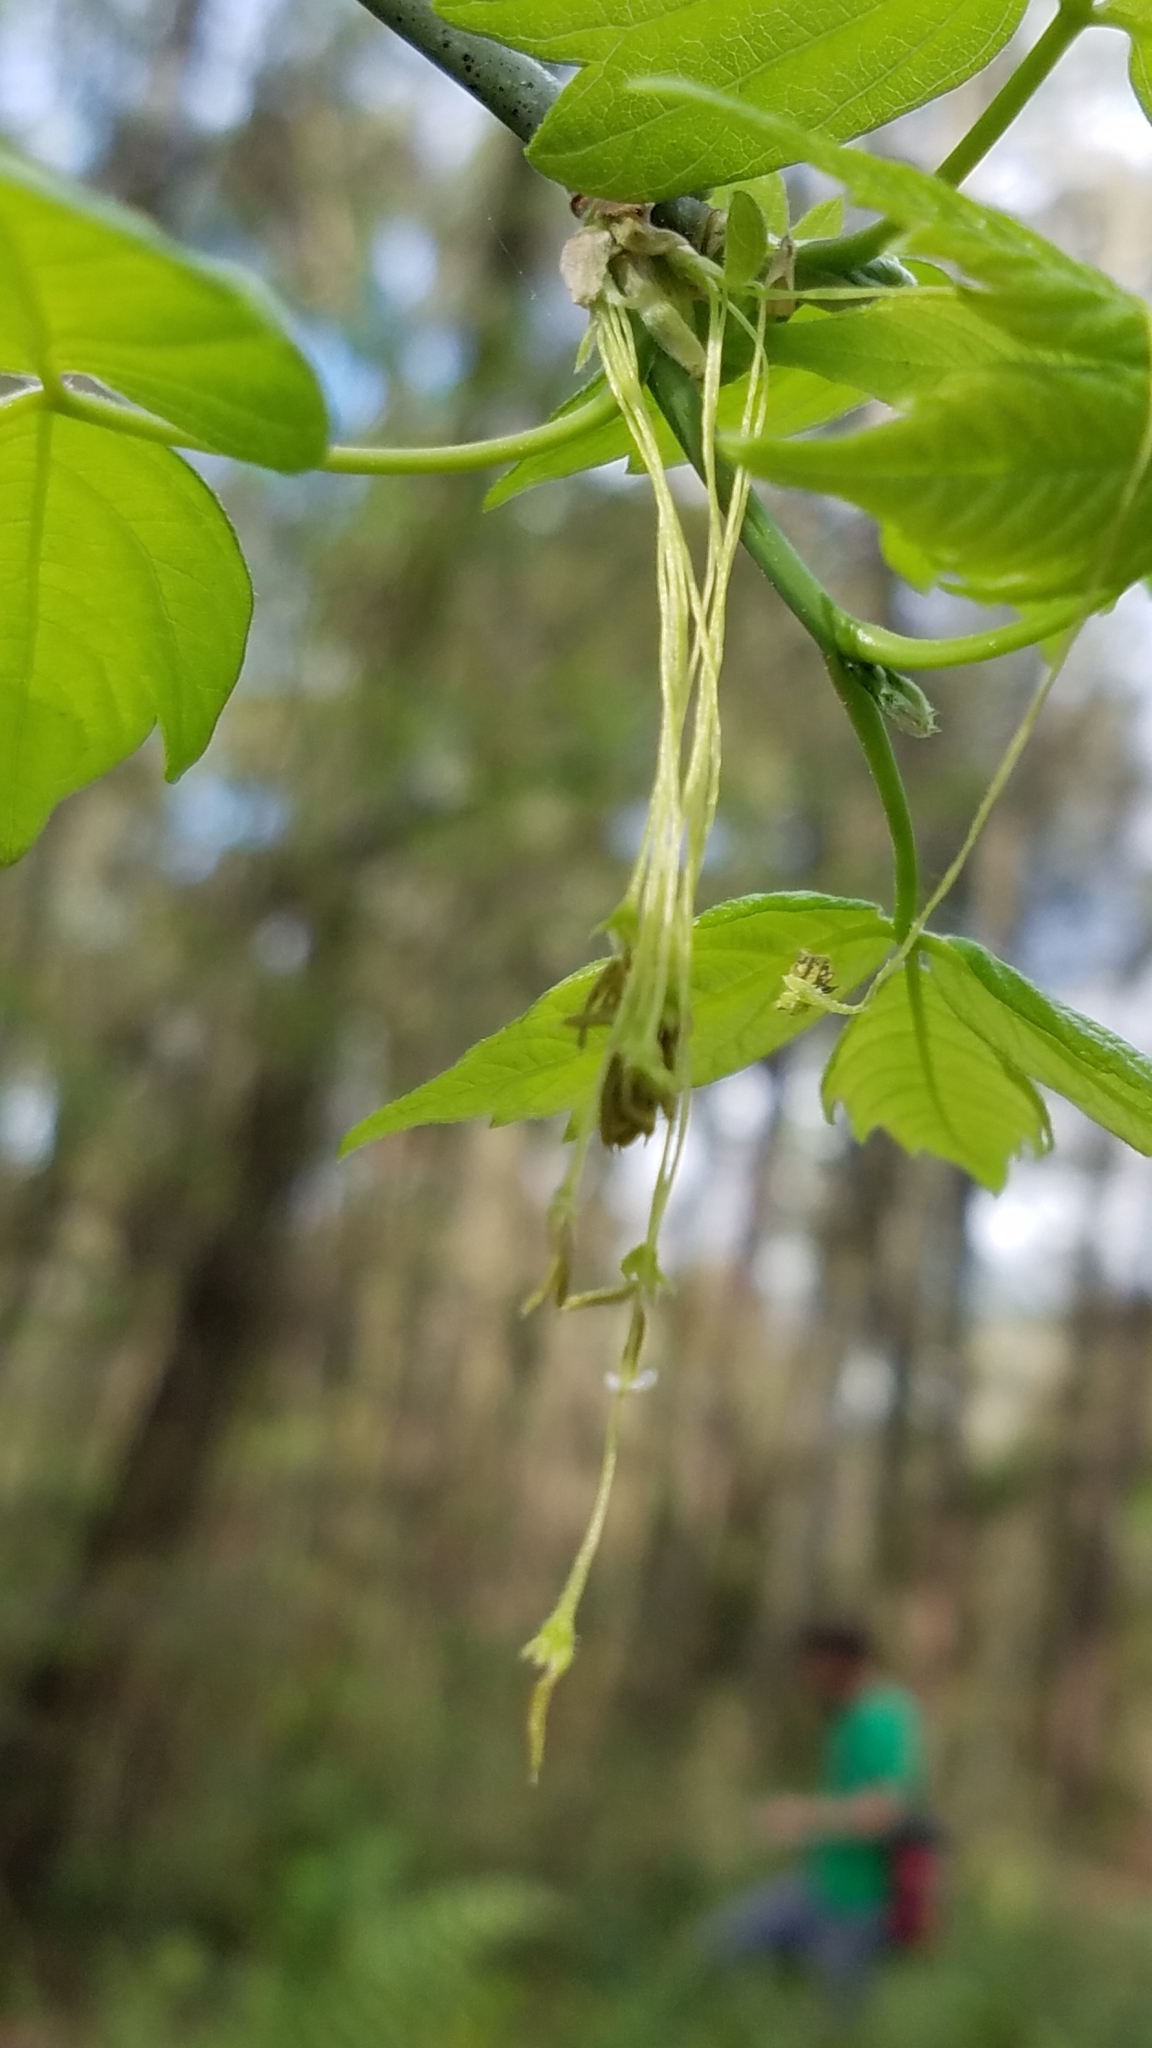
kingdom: Plantae
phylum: Tracheophyta
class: Magnoliopsida
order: Sapindales
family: Sapindaceae
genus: Acer
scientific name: Acer negundo
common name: Ashleaf maple
